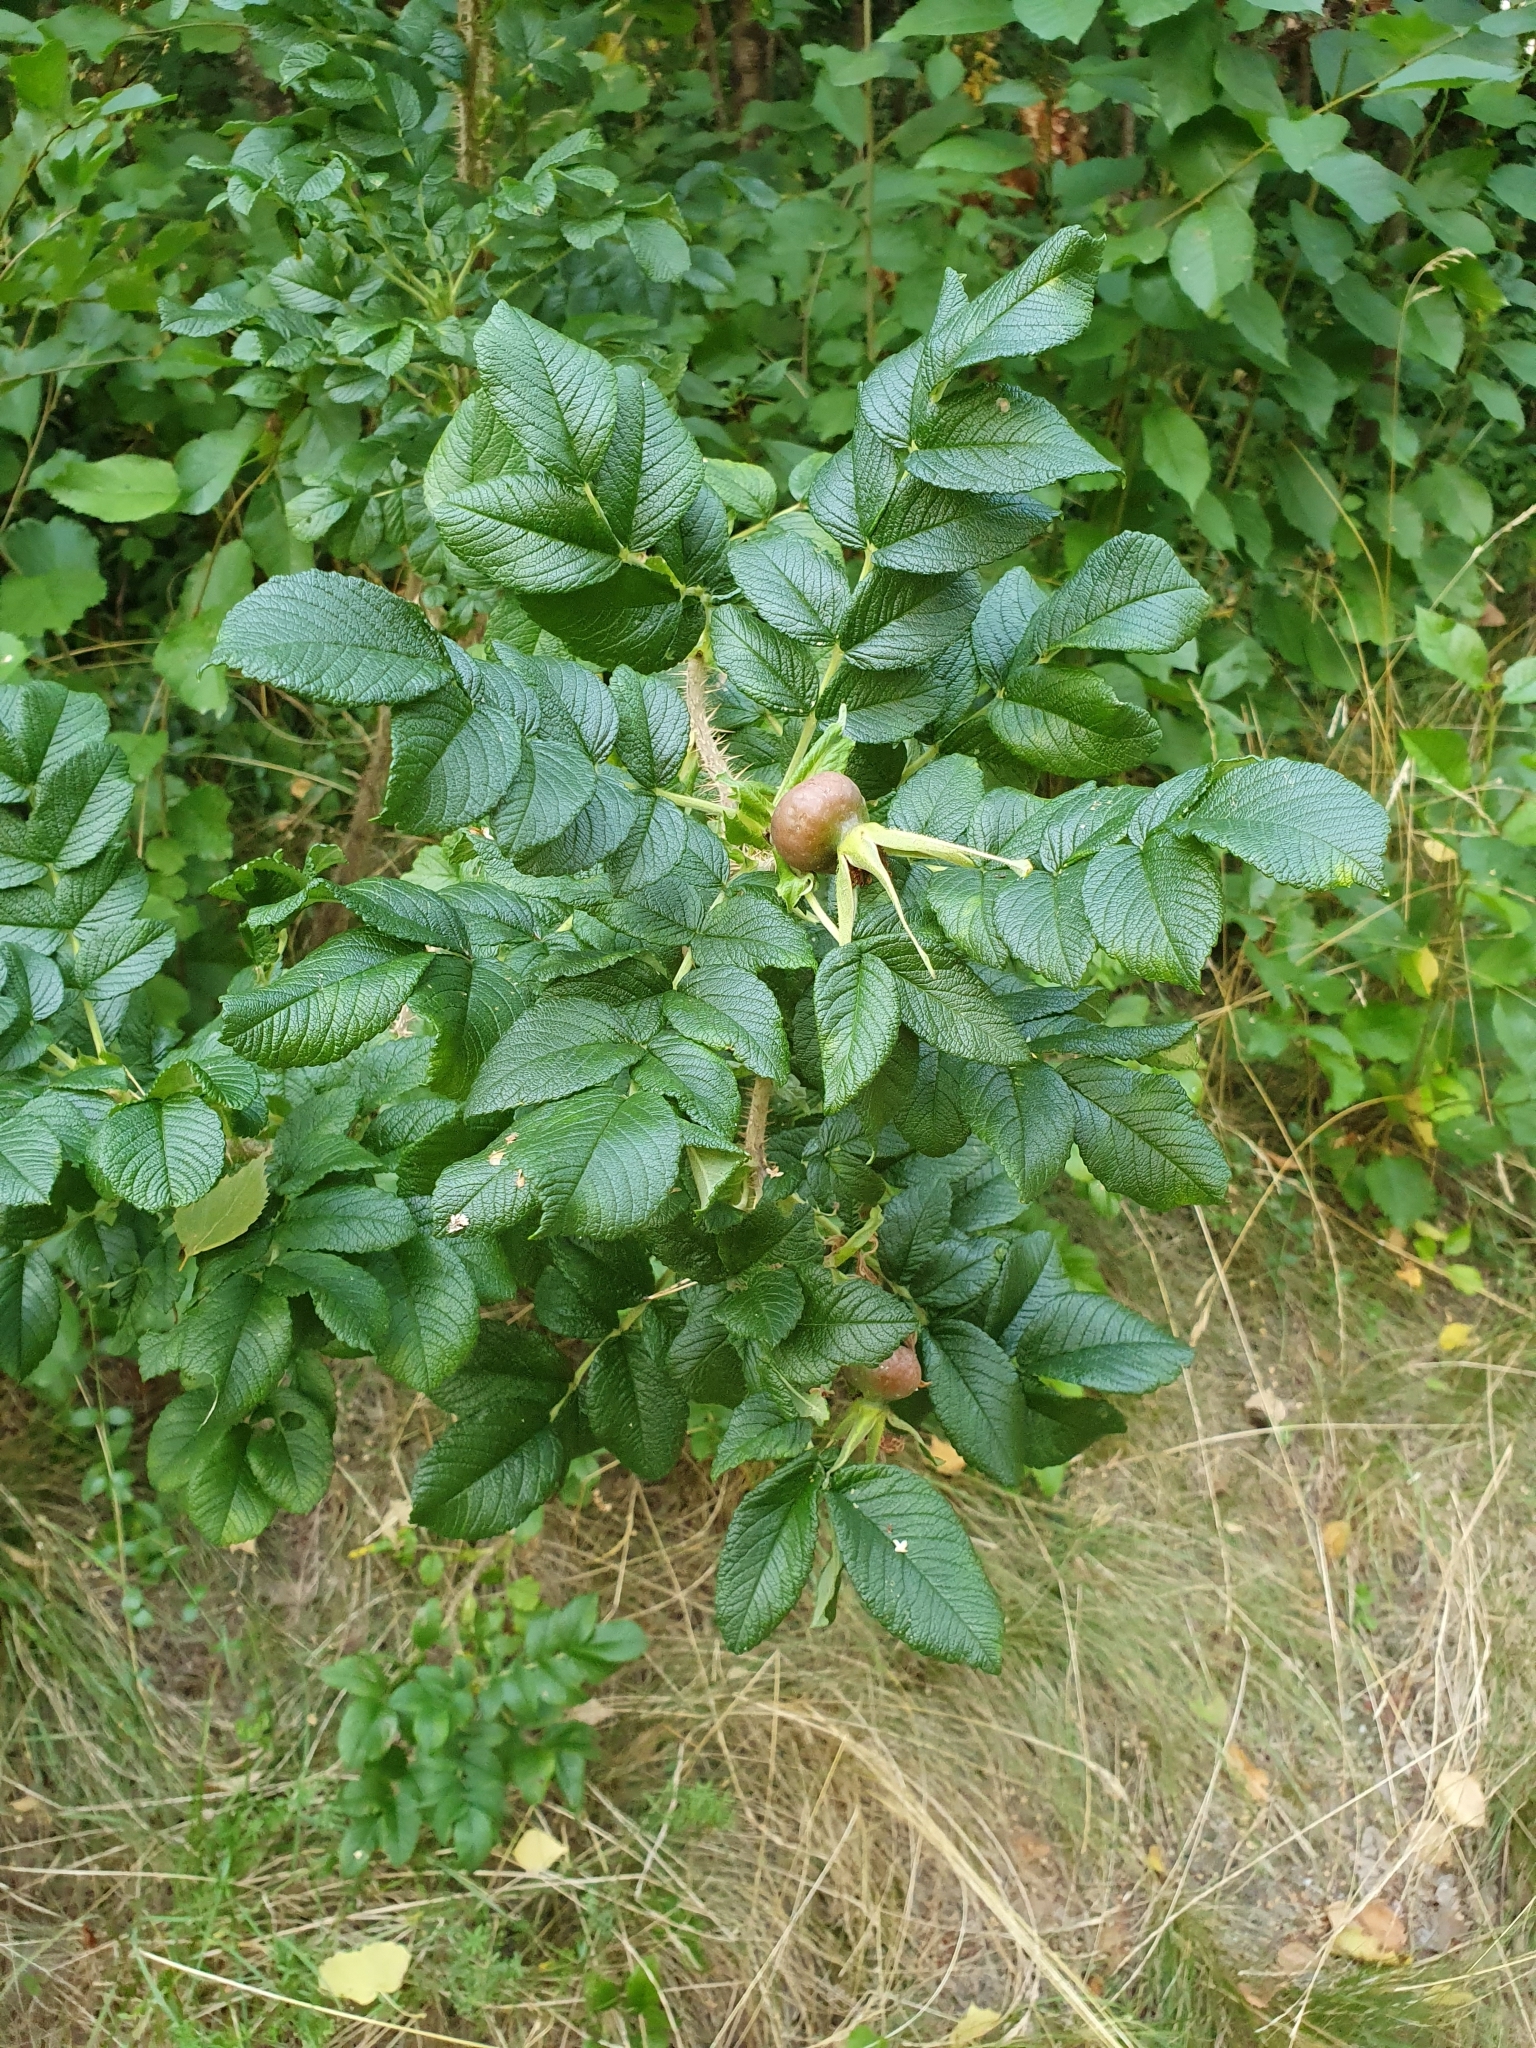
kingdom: Plantae
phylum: Tracheophyta
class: Magnoliopsida
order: Rosales
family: Rosaceae
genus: Rosa
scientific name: Rosa rugosa
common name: Japanese rose
